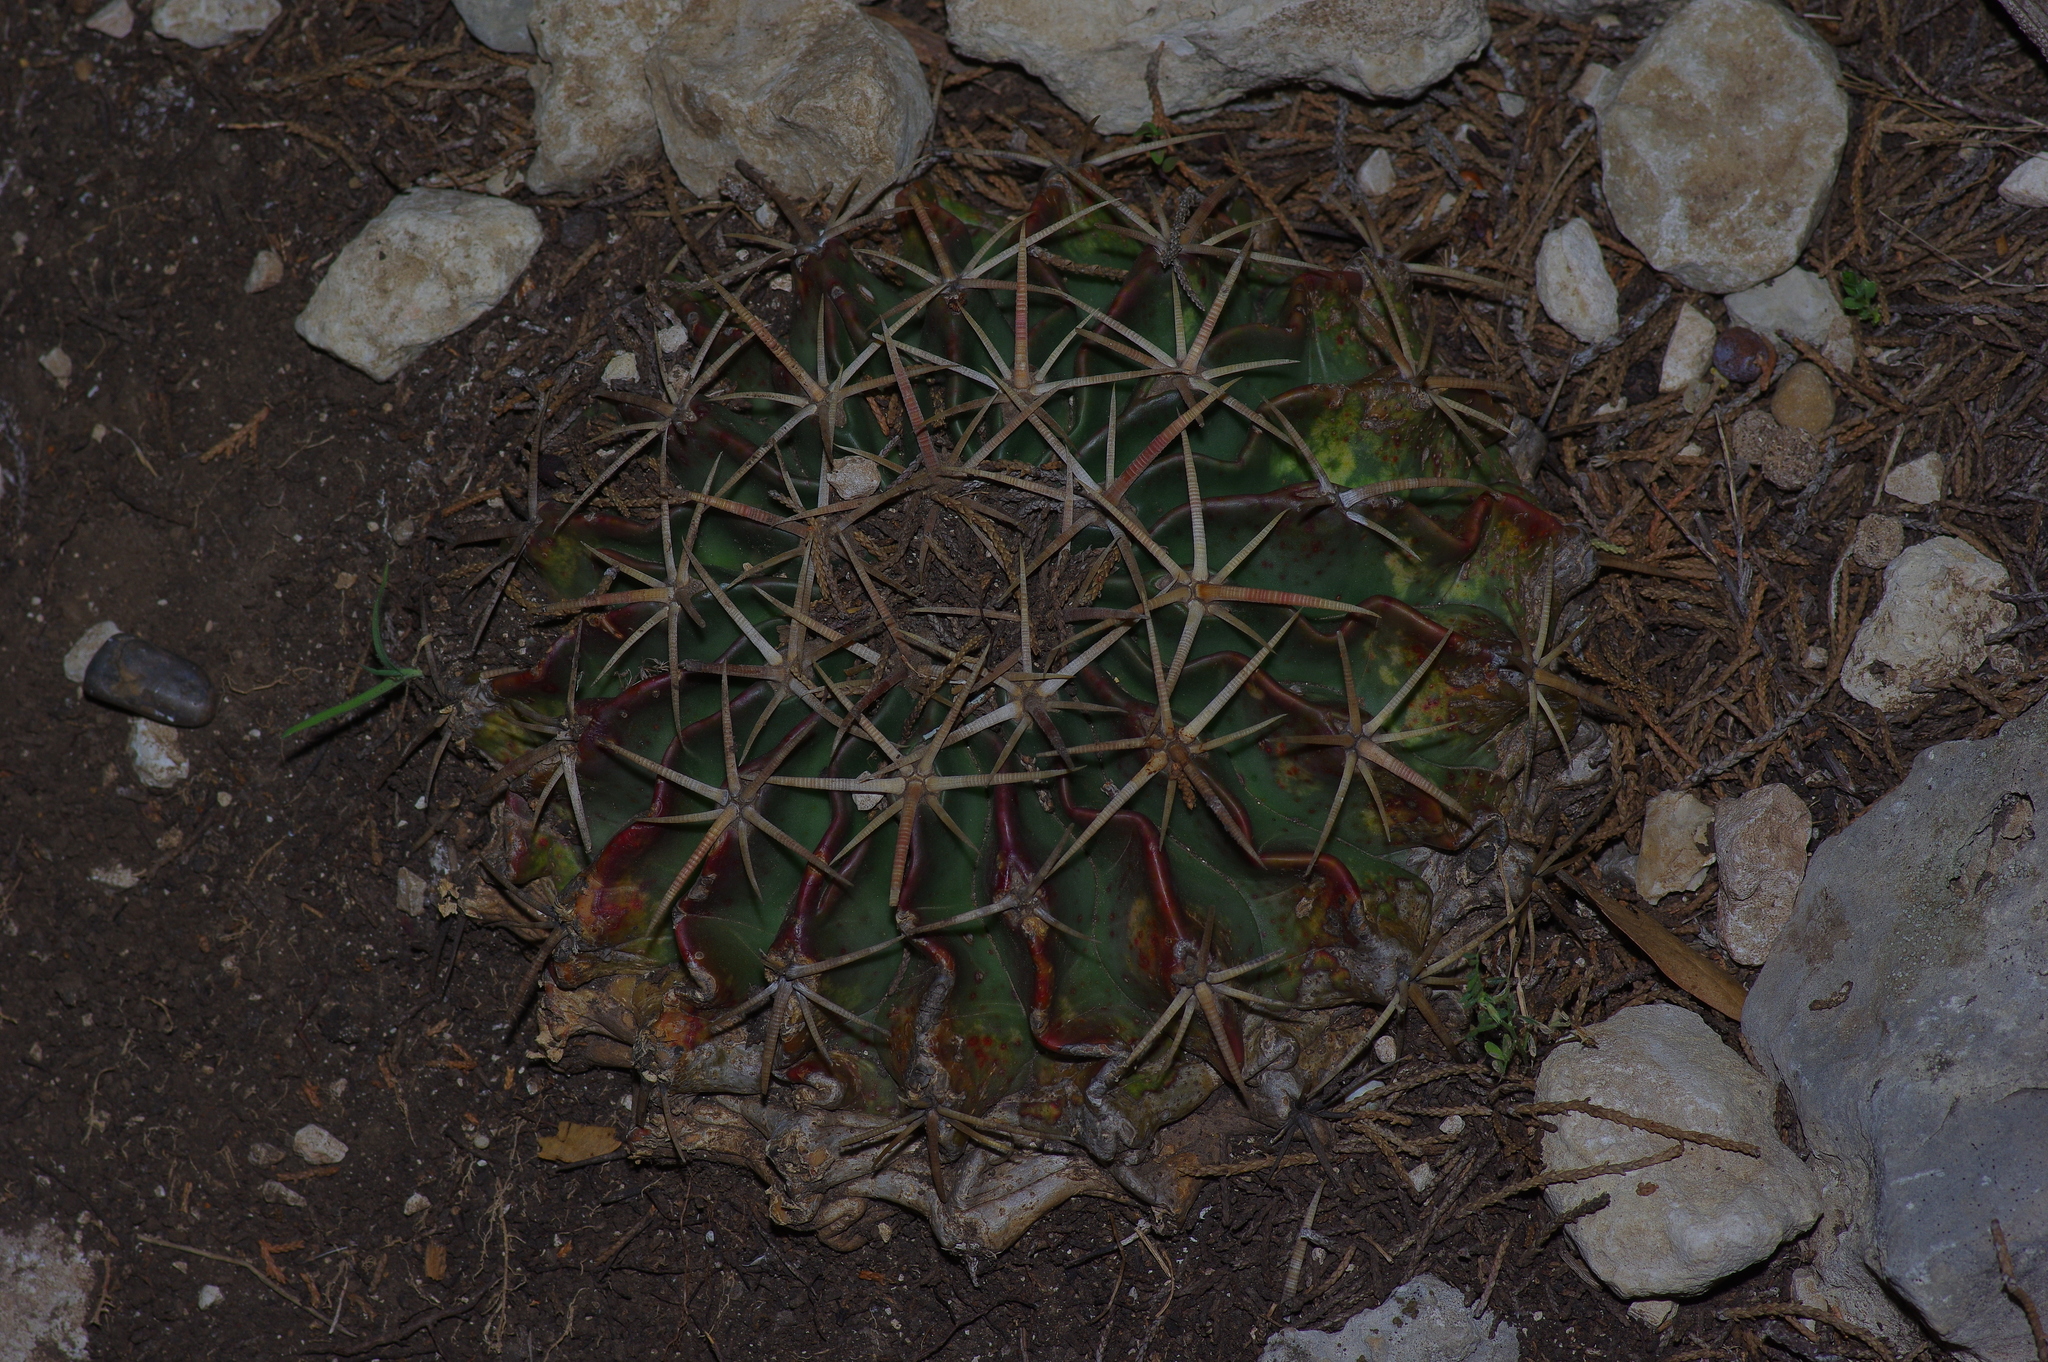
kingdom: Plantae
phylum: Tracheophyta
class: Magnoliopsida
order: Caryophyllales
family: Cactaceae
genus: Echinocactus
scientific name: Echinocactus texensis
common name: Devil's pincushion
